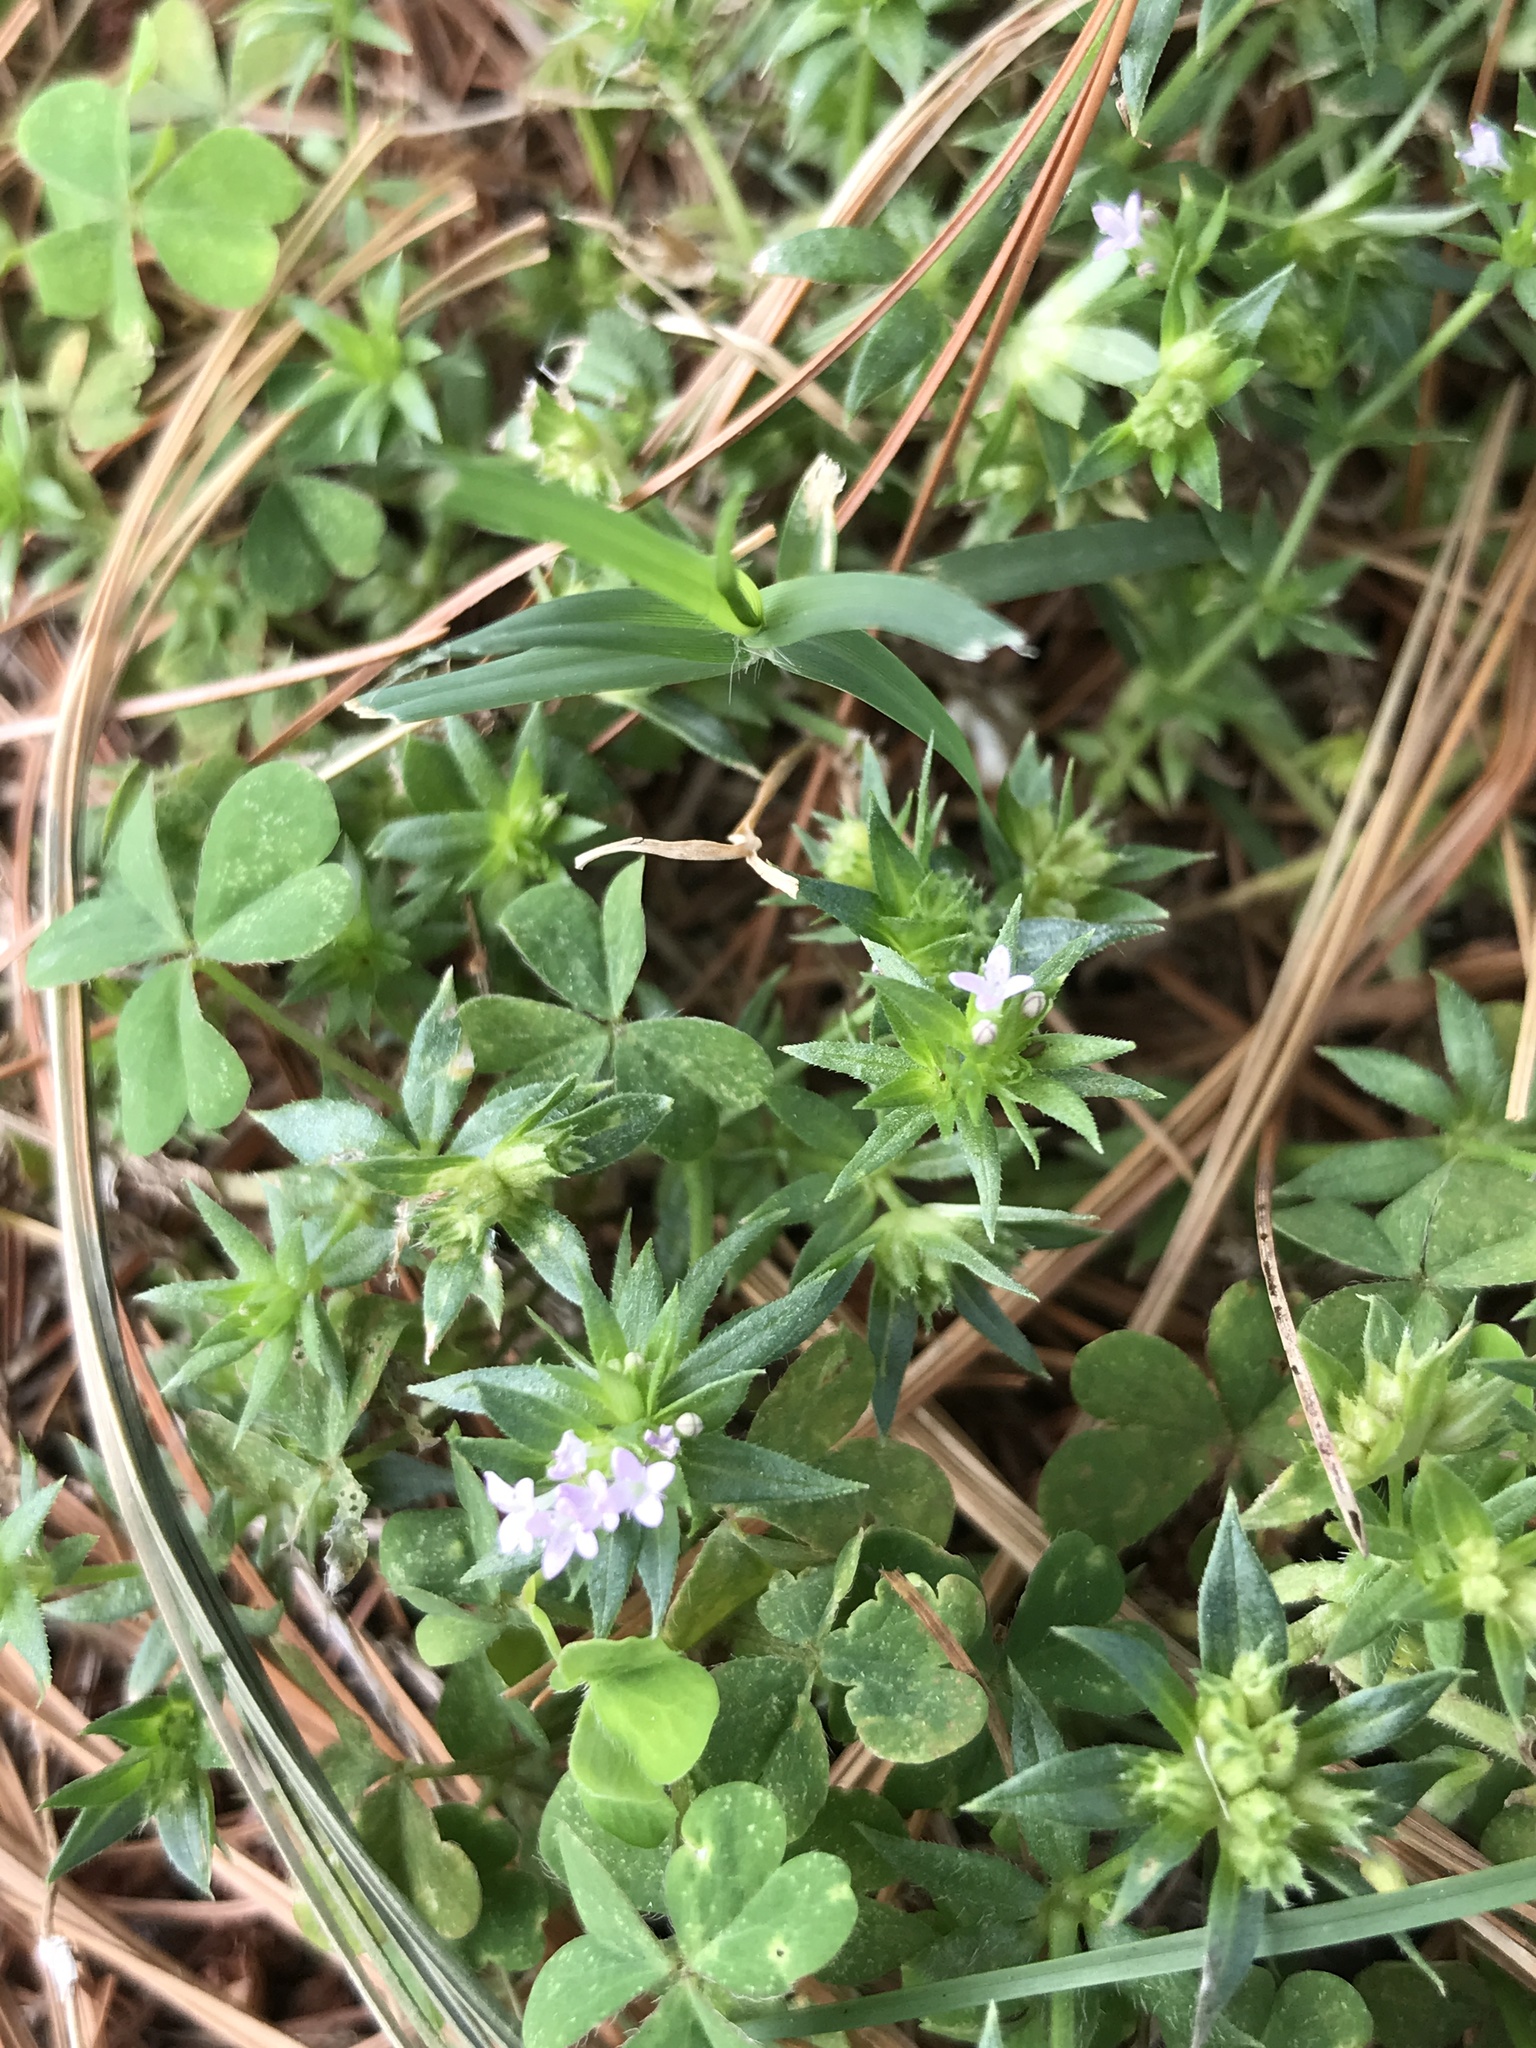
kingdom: Plantae
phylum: Tracheophyta
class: Magnoliopsida
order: Gentianales
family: Rubiaceae
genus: Sherardia
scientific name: Sherardia arvensis
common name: Field madder
